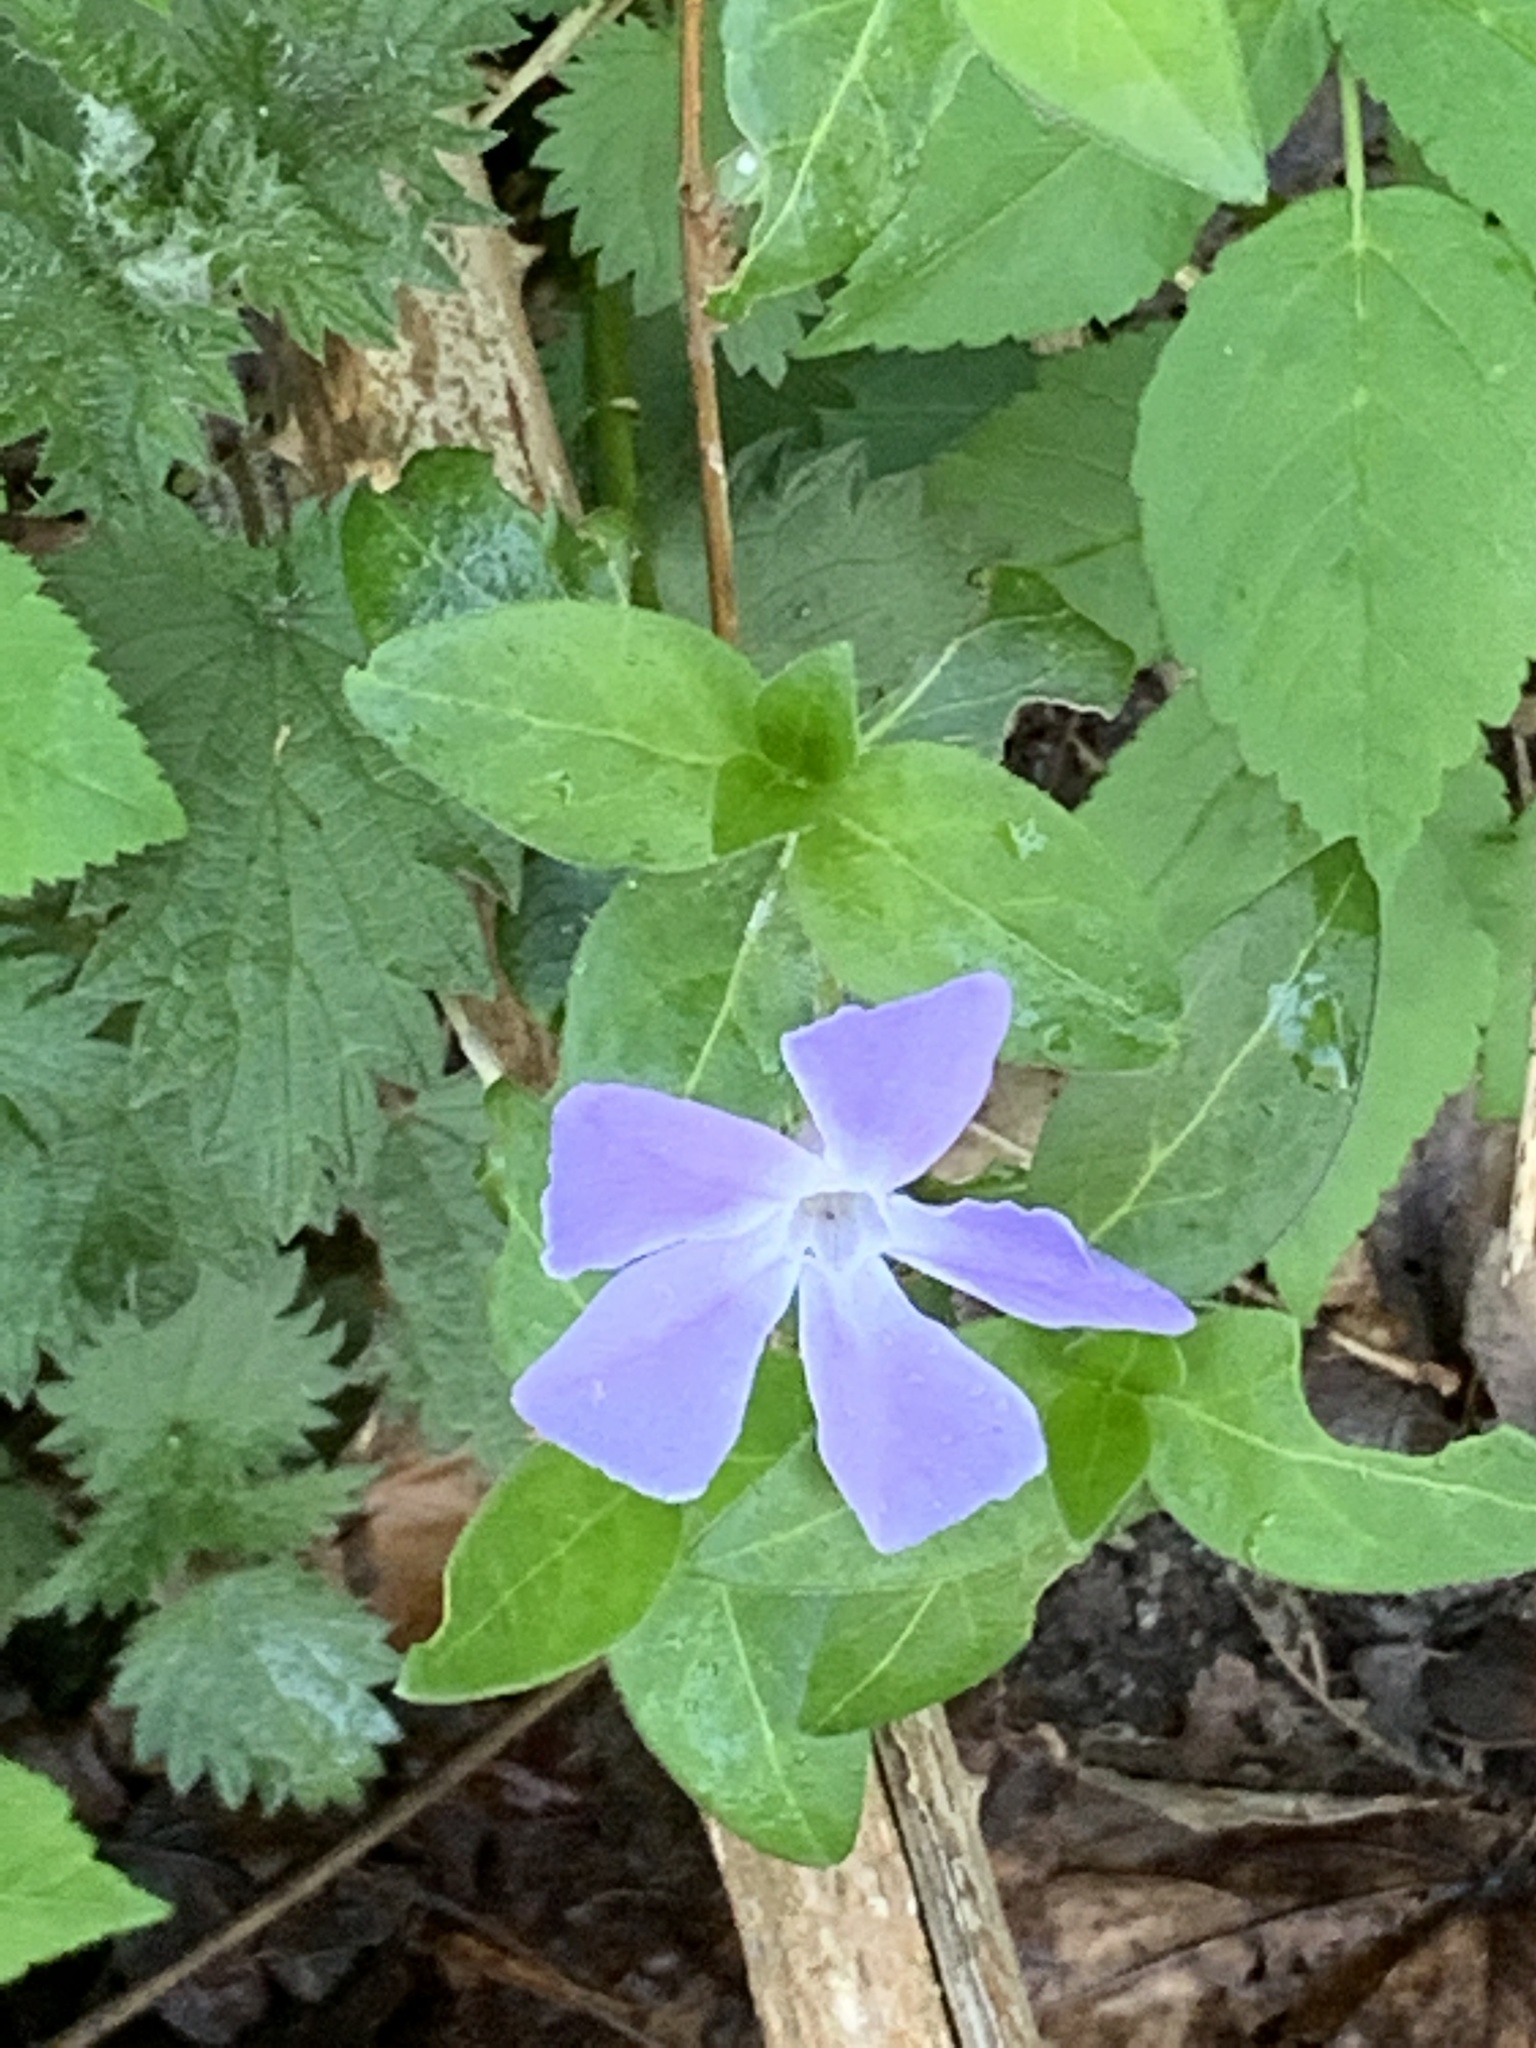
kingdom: Plantae
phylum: Tracheophyta
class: Magnoliopsida
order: Gentianales
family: Apocynaceae
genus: Vinca
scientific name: Vinca major
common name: Greater periwinkle
